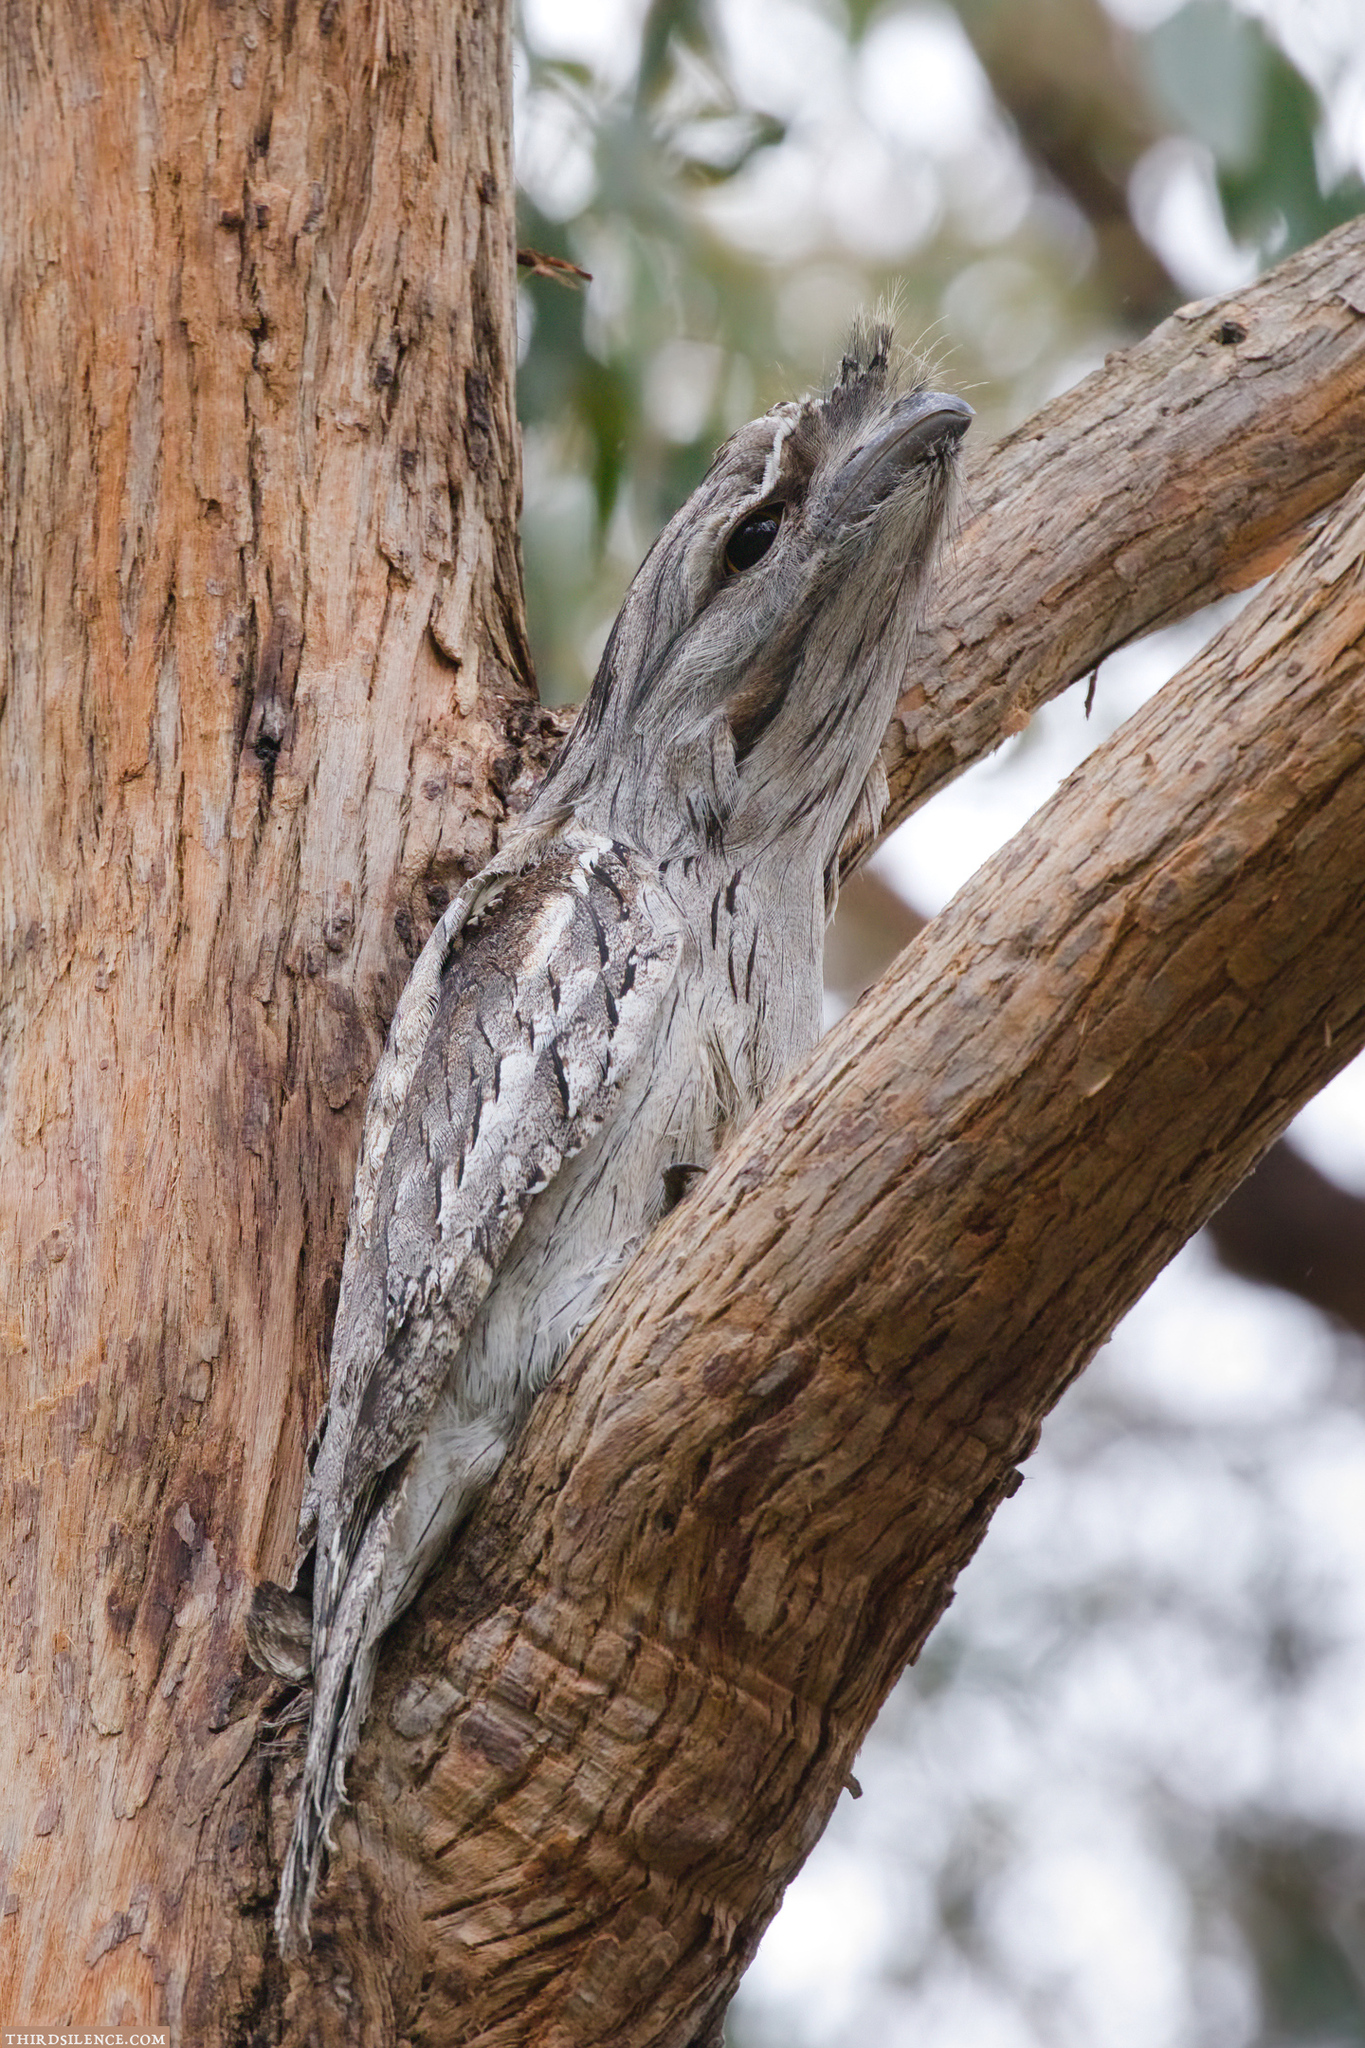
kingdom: Animalia
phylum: Chordata
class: Aves
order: Caprimulgiformes
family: Podargidae
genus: Podargus
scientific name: Podargus strigoides
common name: Tawny frogmouth
